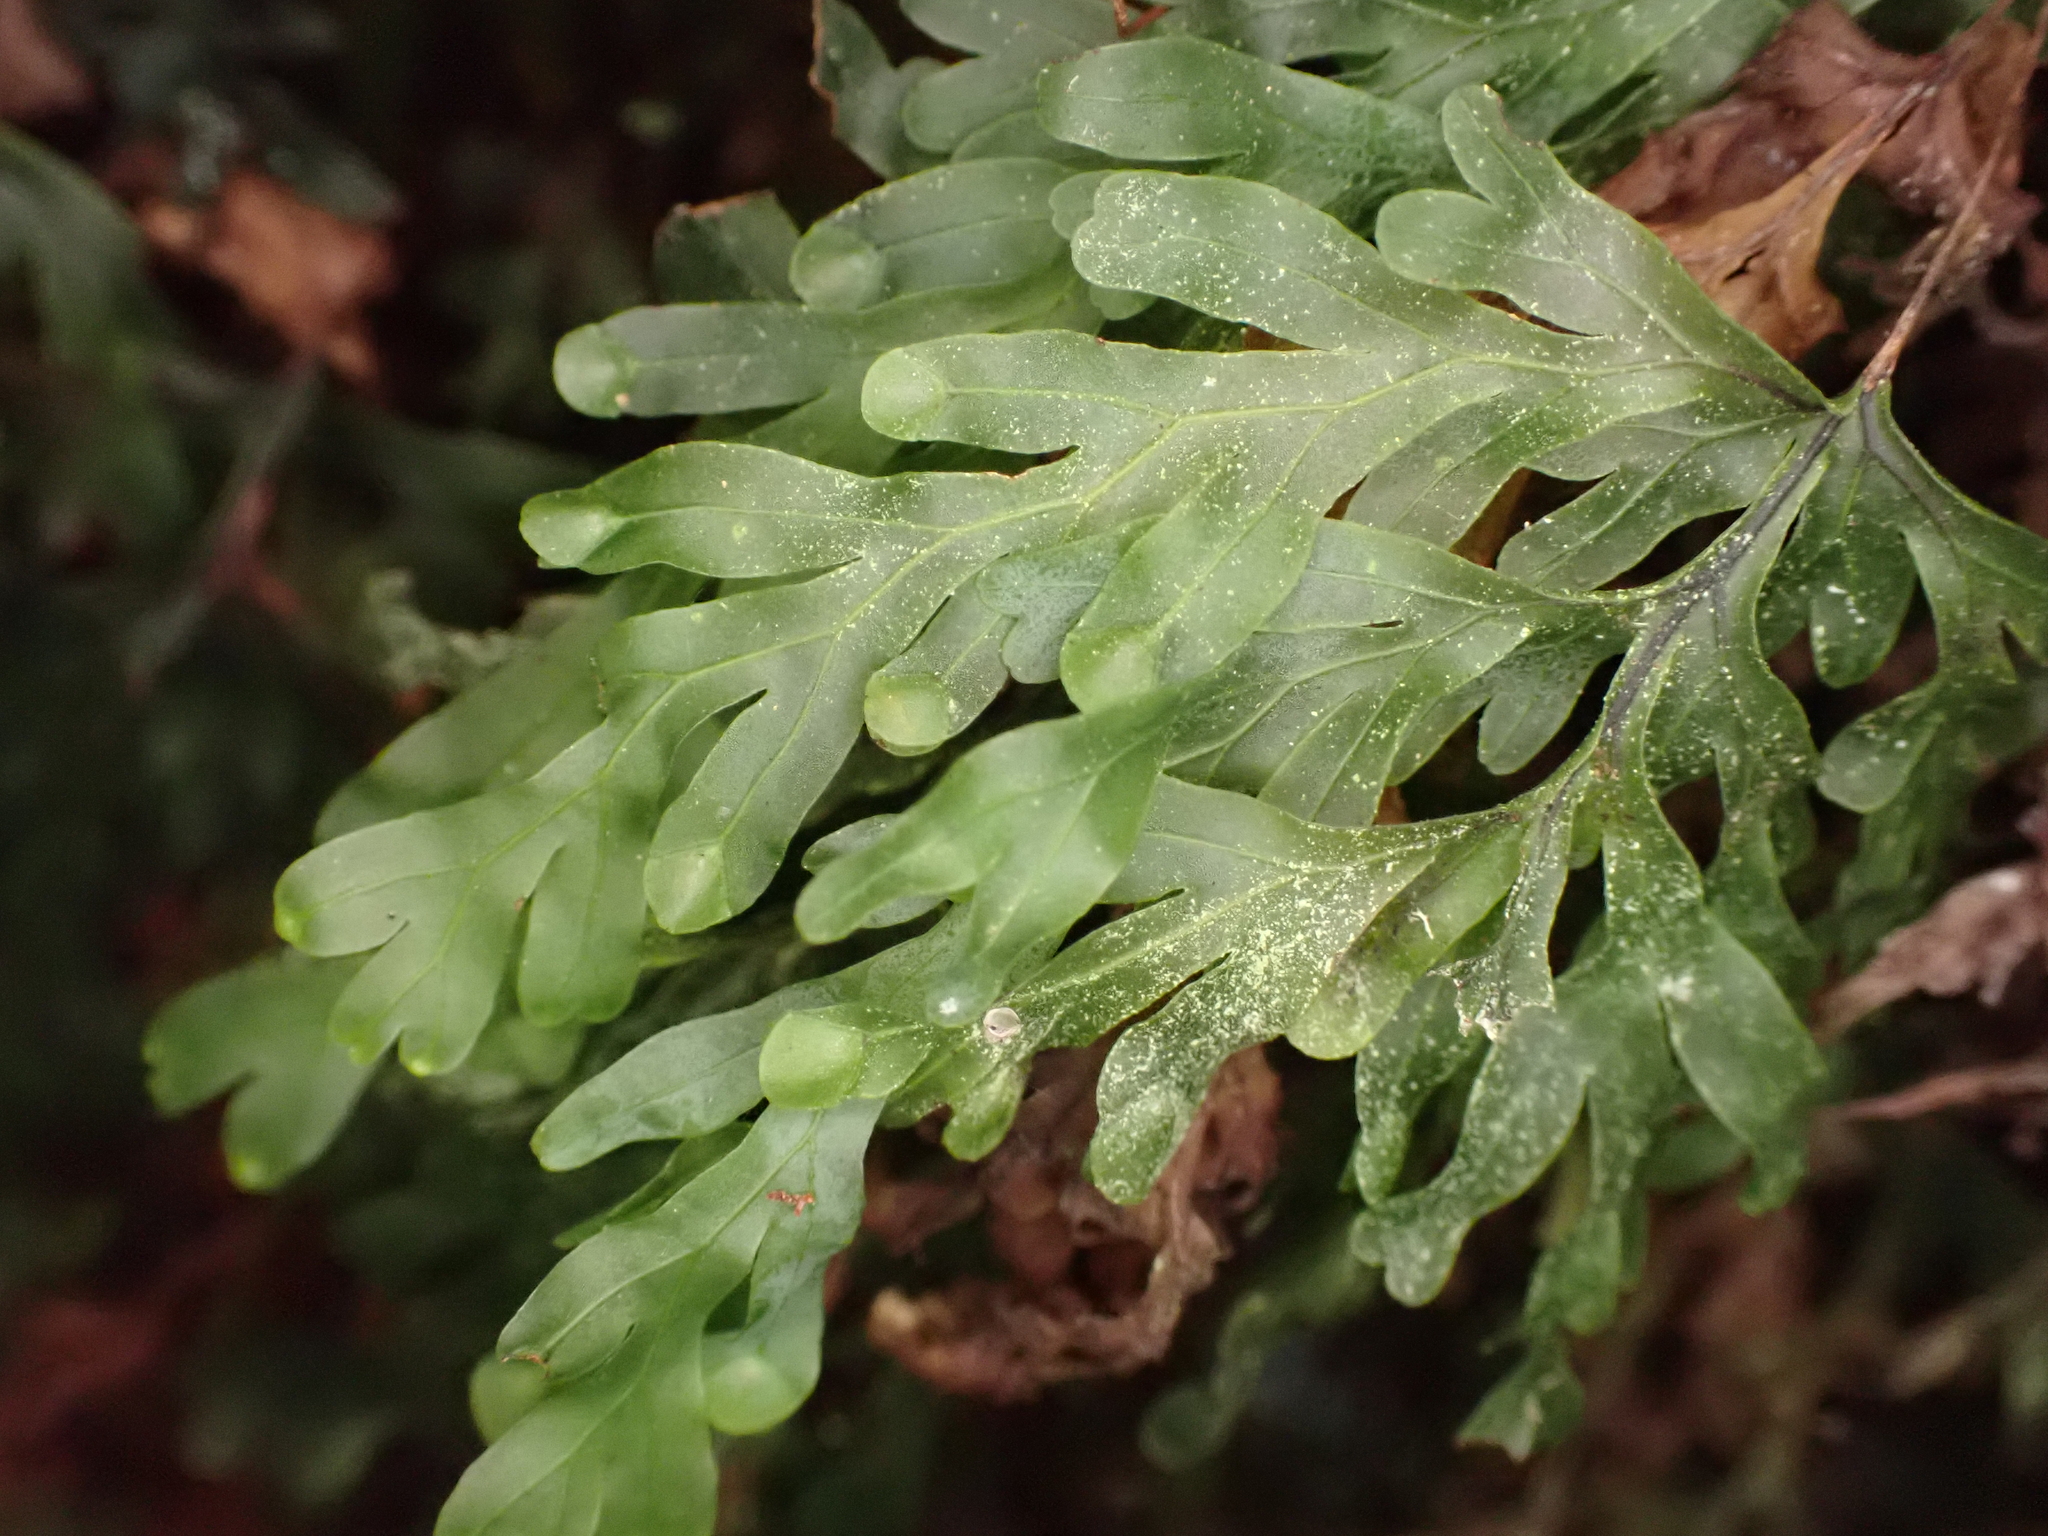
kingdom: Plantae
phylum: Tracheophyta
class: Polypodiopsida
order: Hymenophyllales
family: Hymenophyllaceae
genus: Hymenophyllum
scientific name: Hymenophyllum rarum
